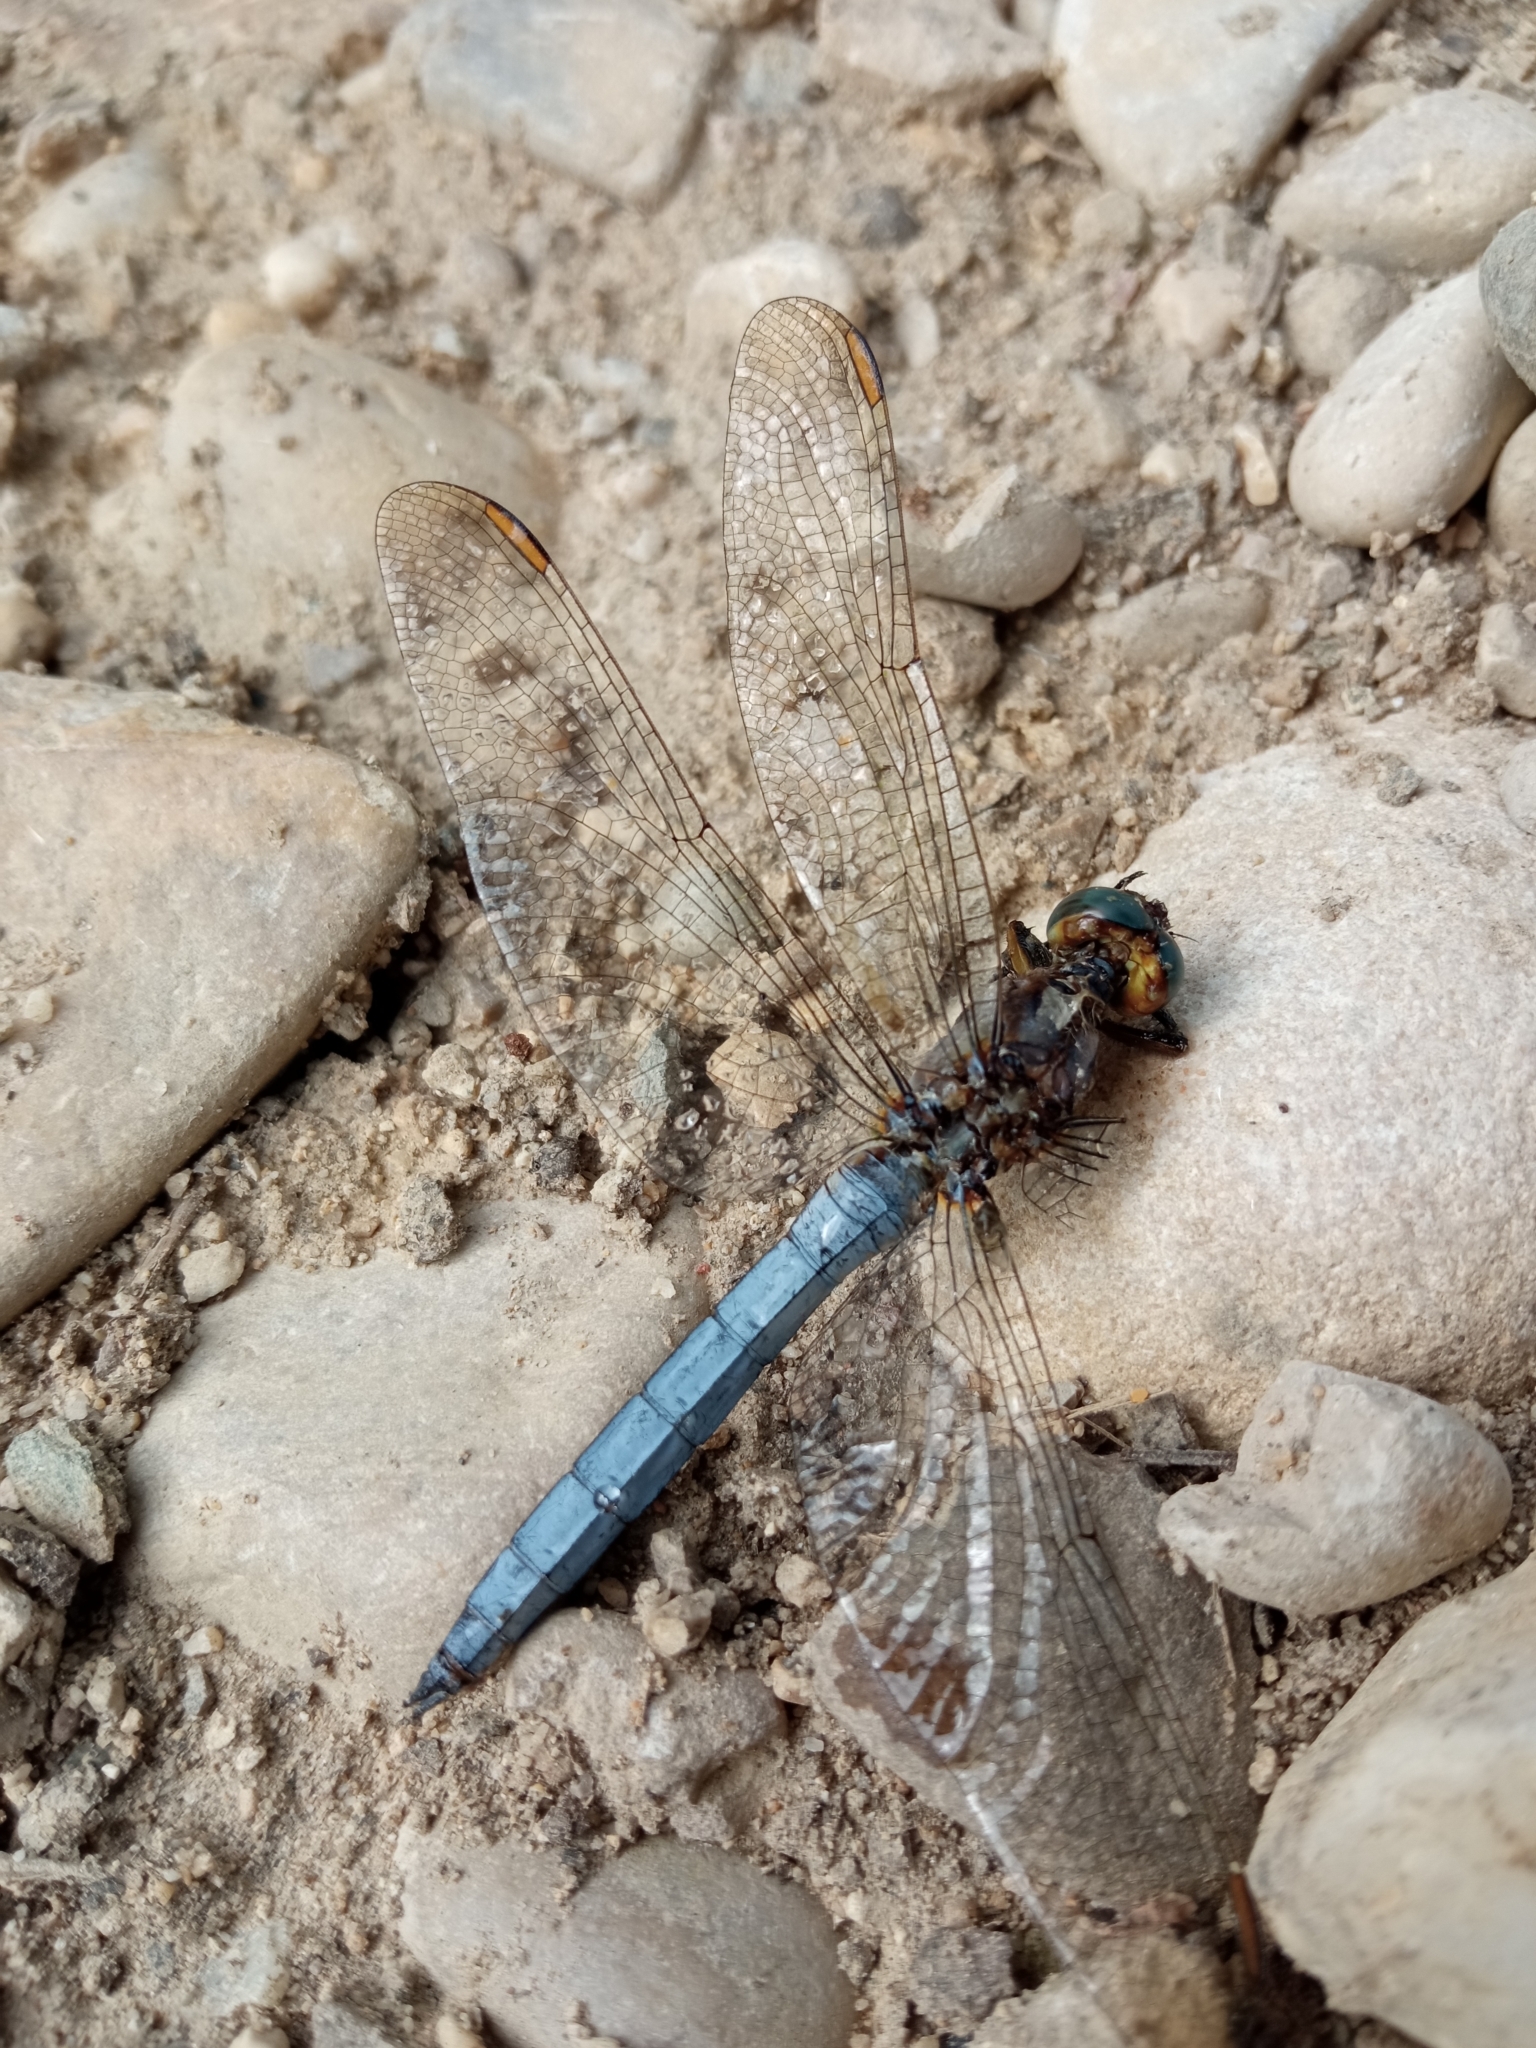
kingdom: Animalia
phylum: Arthropoda
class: Insecta
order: Odonata
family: Libellulidae
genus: Orthetrum
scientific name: Orthetrum coerulescens
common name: Keeled skimmer
